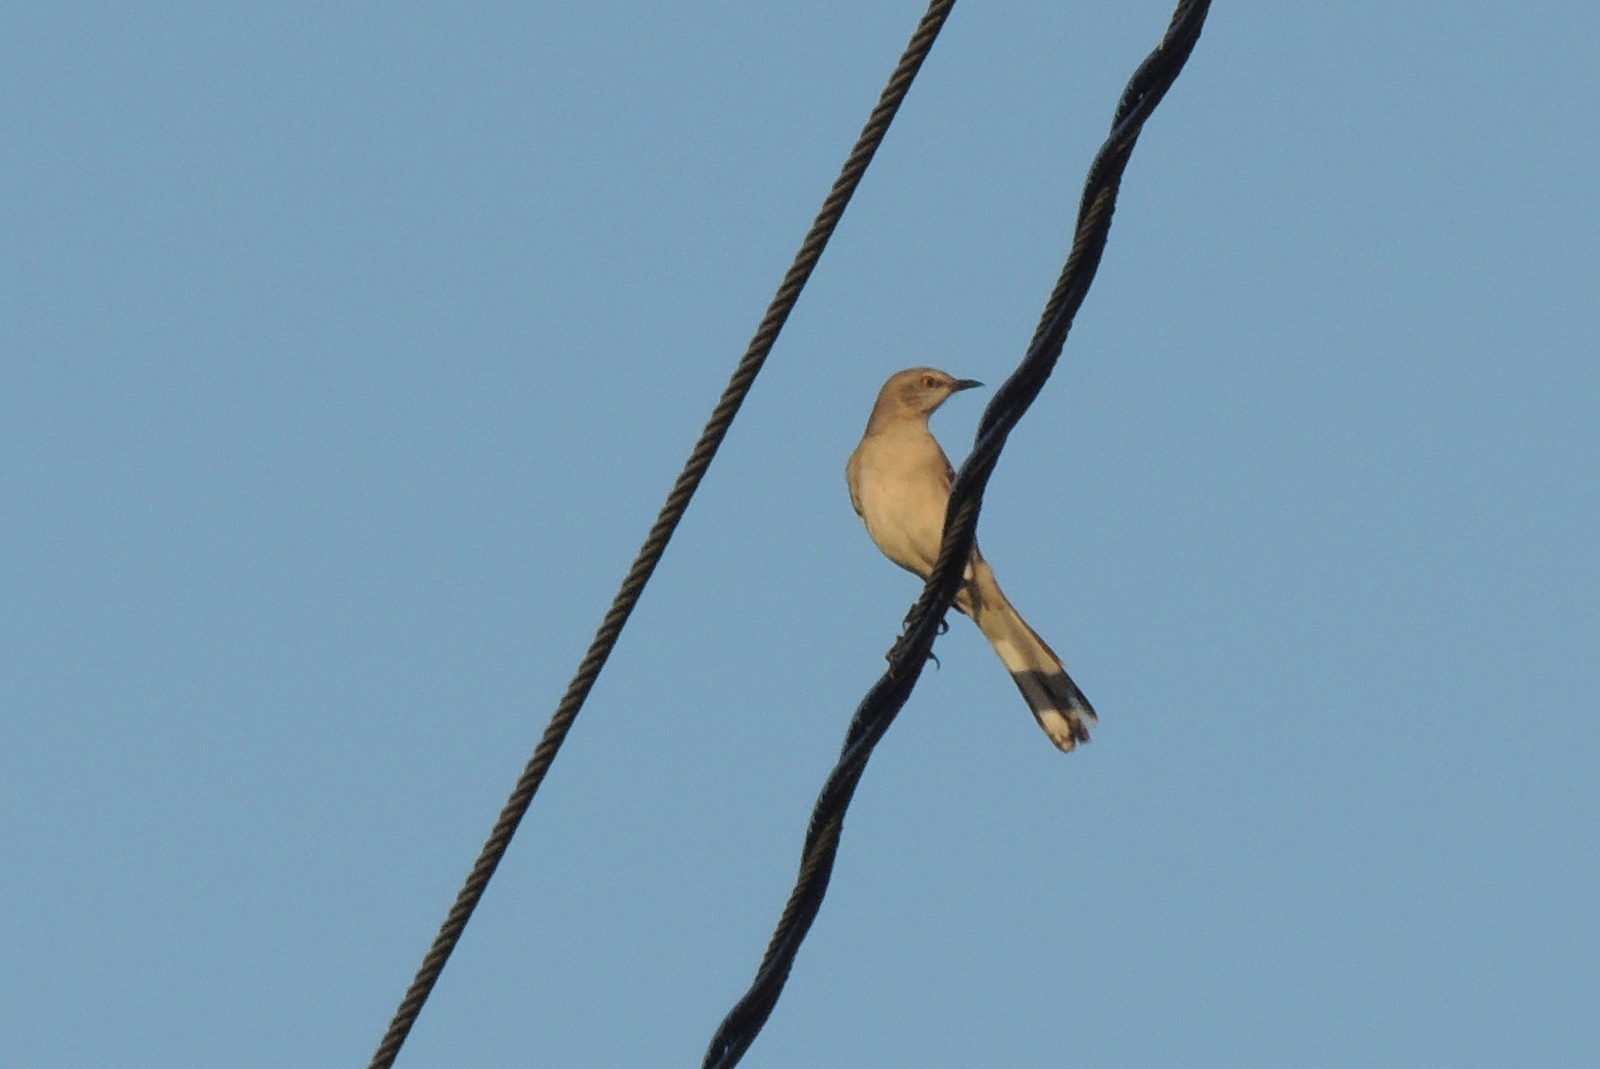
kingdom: Animalia
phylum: Chordata
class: Aves
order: Passeriformes
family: Mimidae
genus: Mimus
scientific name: Mimus polyglottos
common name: Northern mockingbird
